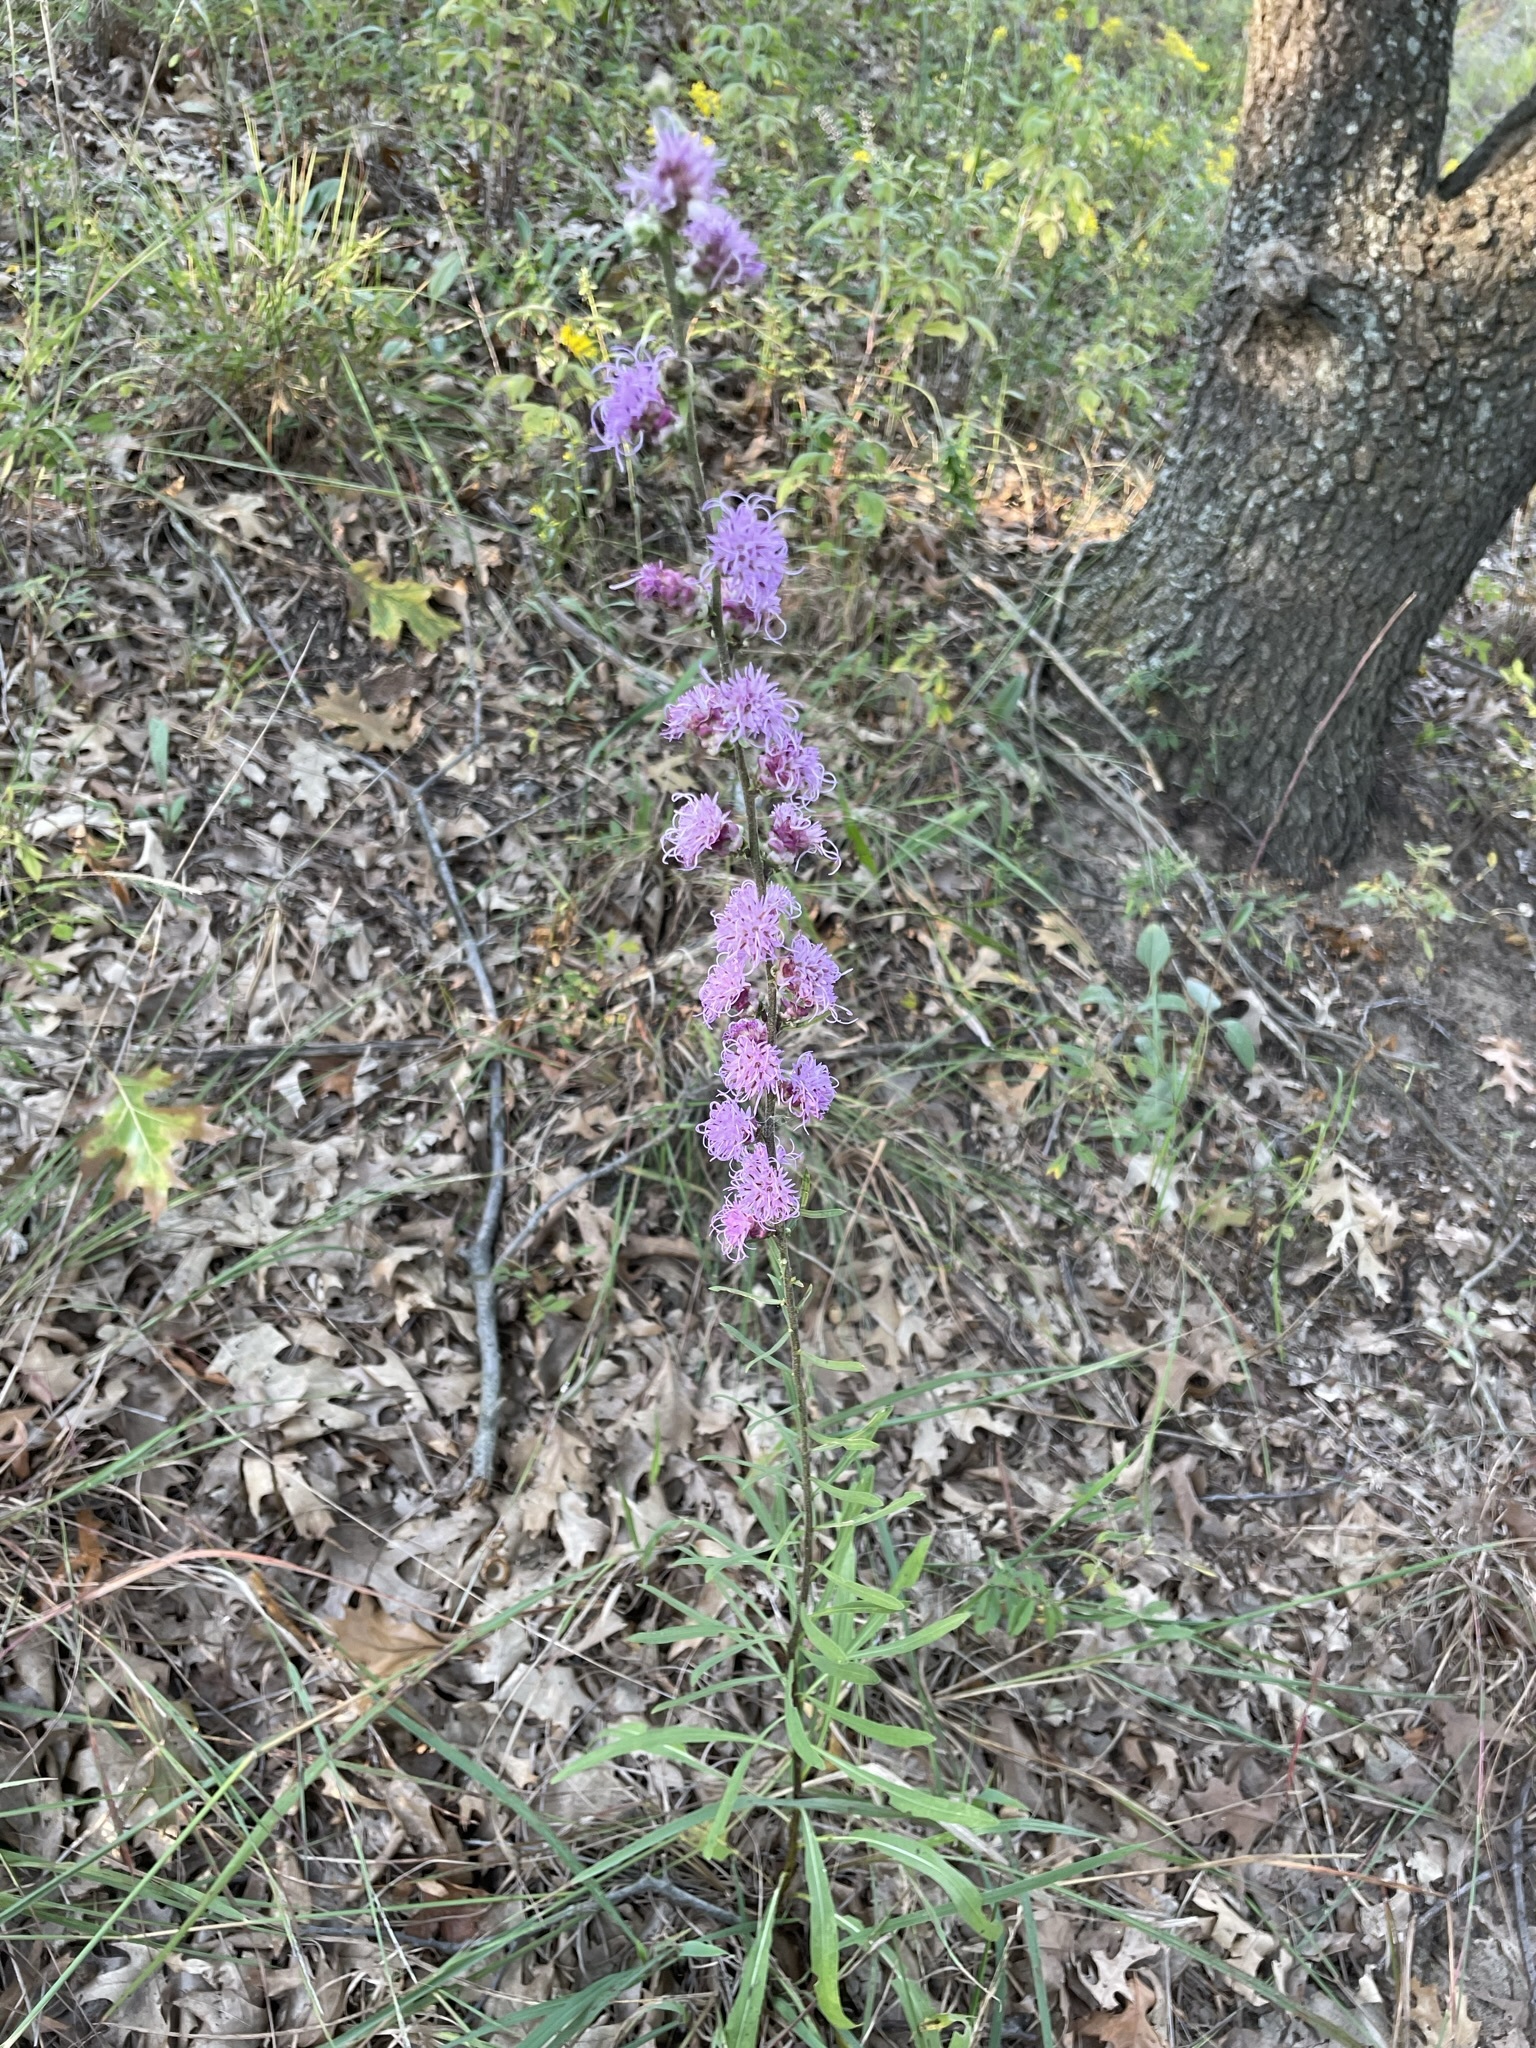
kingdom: Plantae
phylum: Tracheophyta
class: Magnoliopsida
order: Asterales
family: Asteraceae
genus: Liatris
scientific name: Liatris aspera
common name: Lacerate blazing-star
